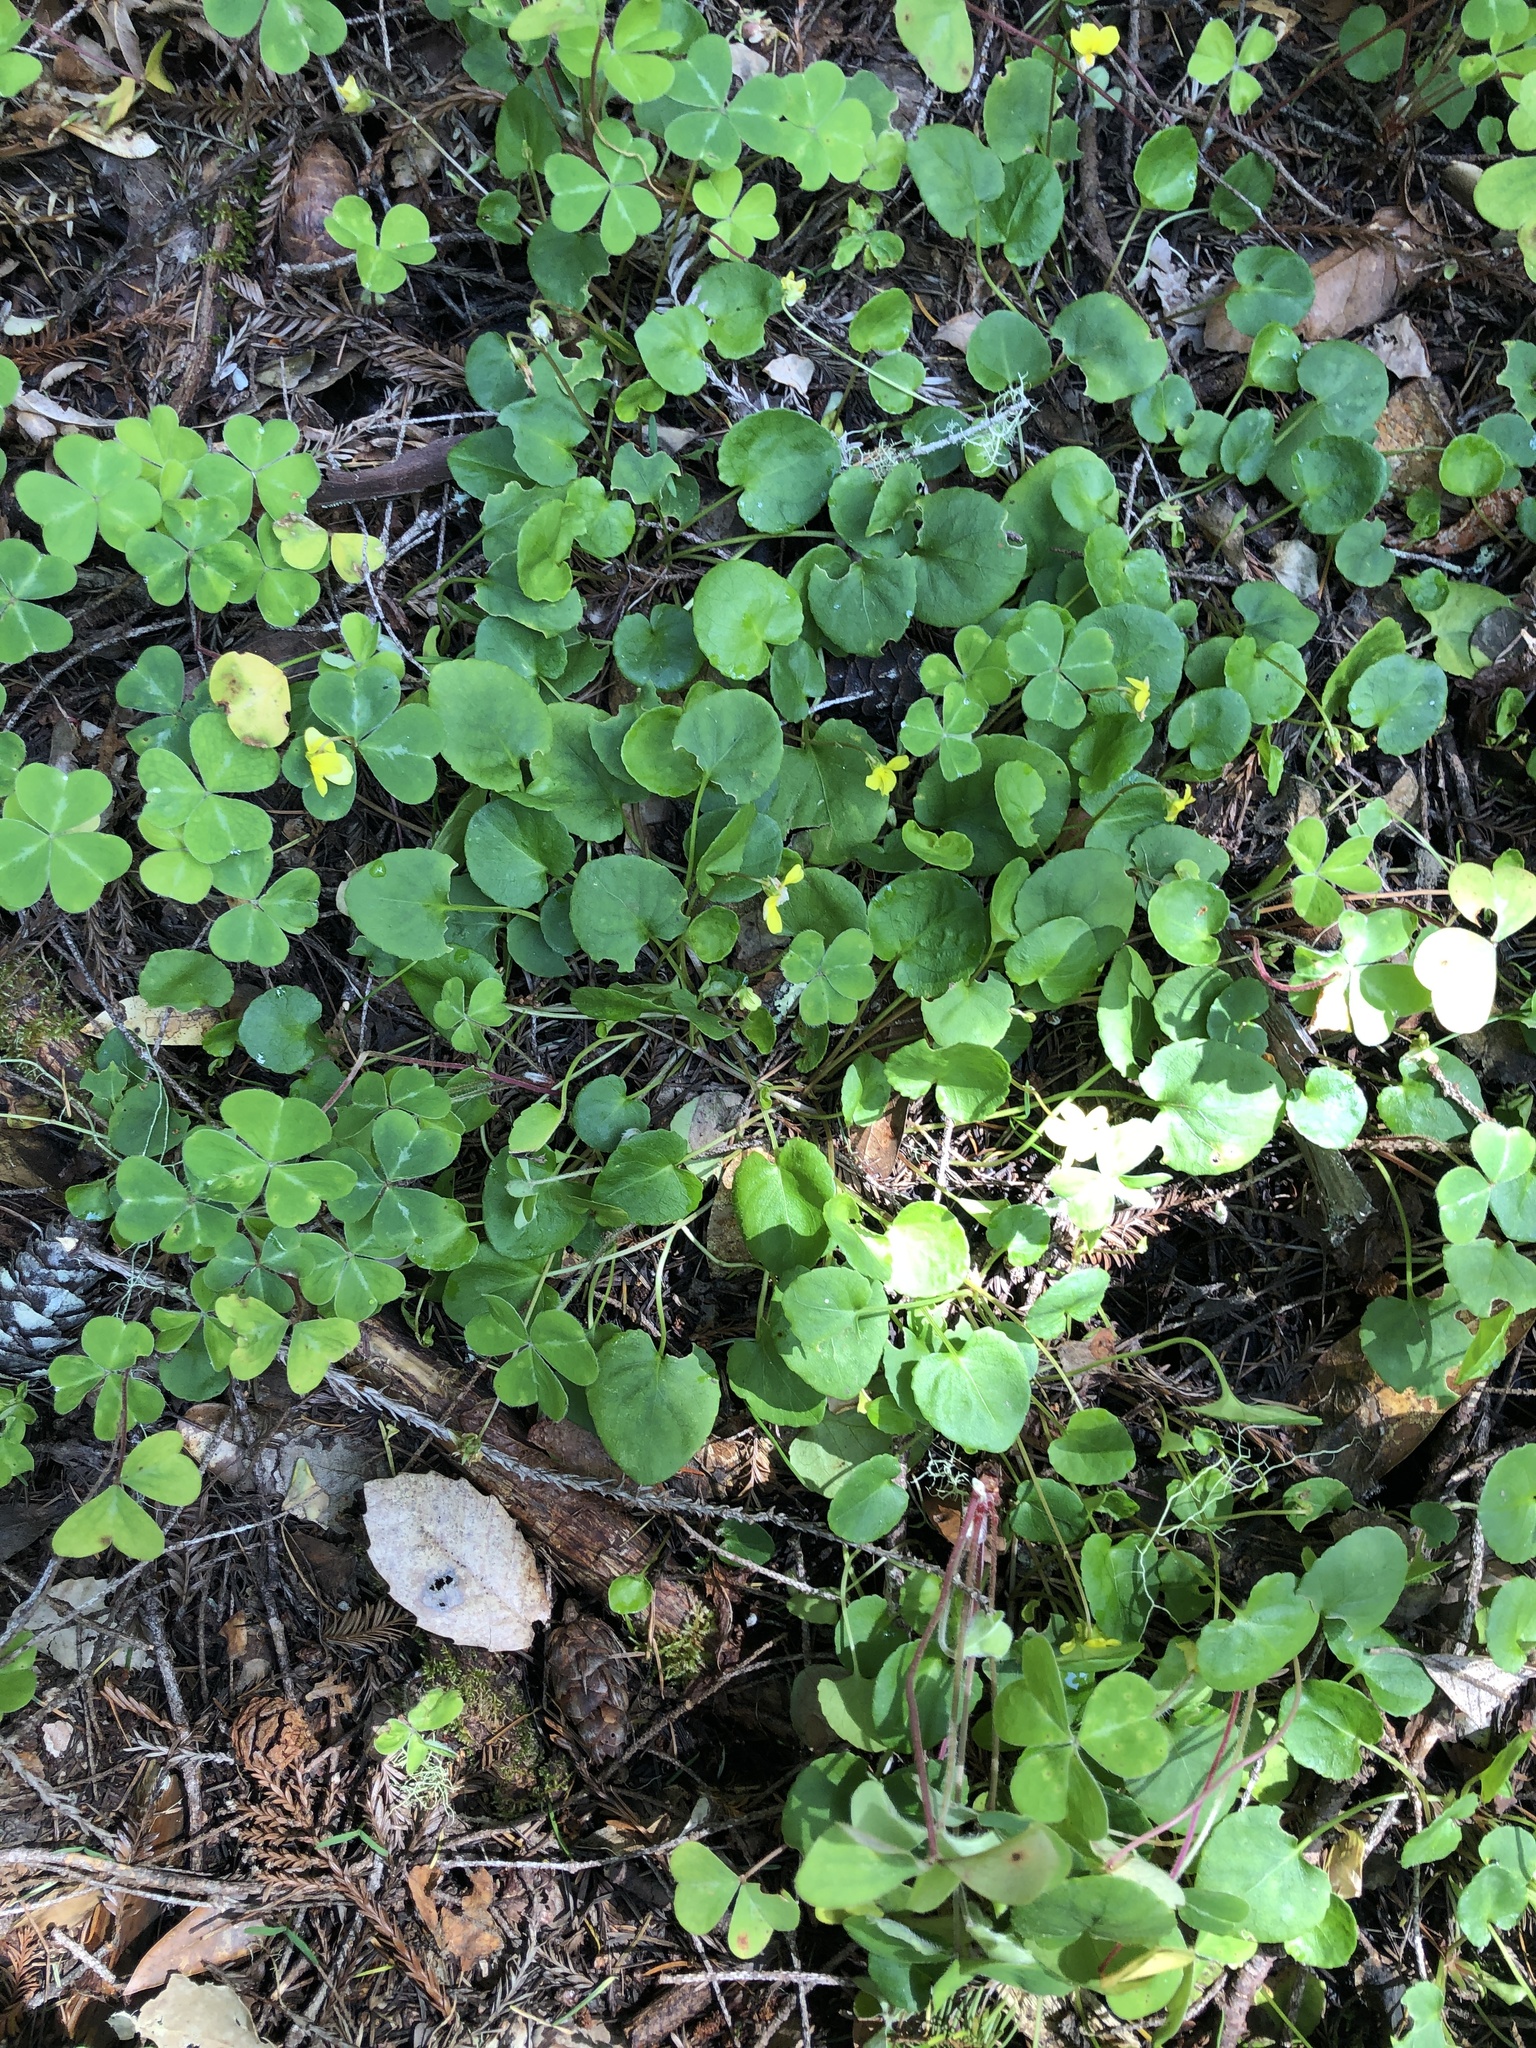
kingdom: Plantae
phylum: Tracheophyta
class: Magnoliopsida
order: Malpighiales
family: Violaceae
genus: Viola
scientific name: Viola sempervirens
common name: Evergreen violet
